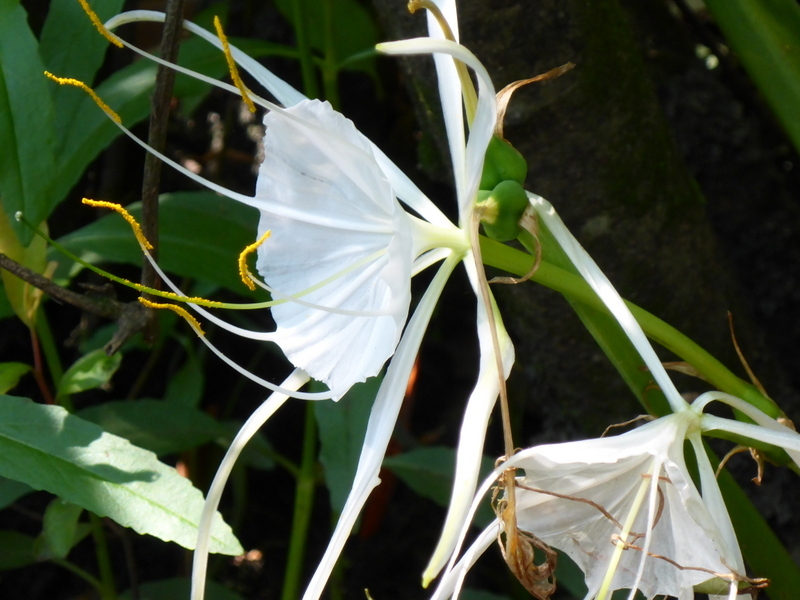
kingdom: Plantae
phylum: Tracheophyta
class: Liliopsida
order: Asparagales
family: Amaryllidaceae
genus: Hymenocallis
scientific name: Hymenocallis franklinensis
